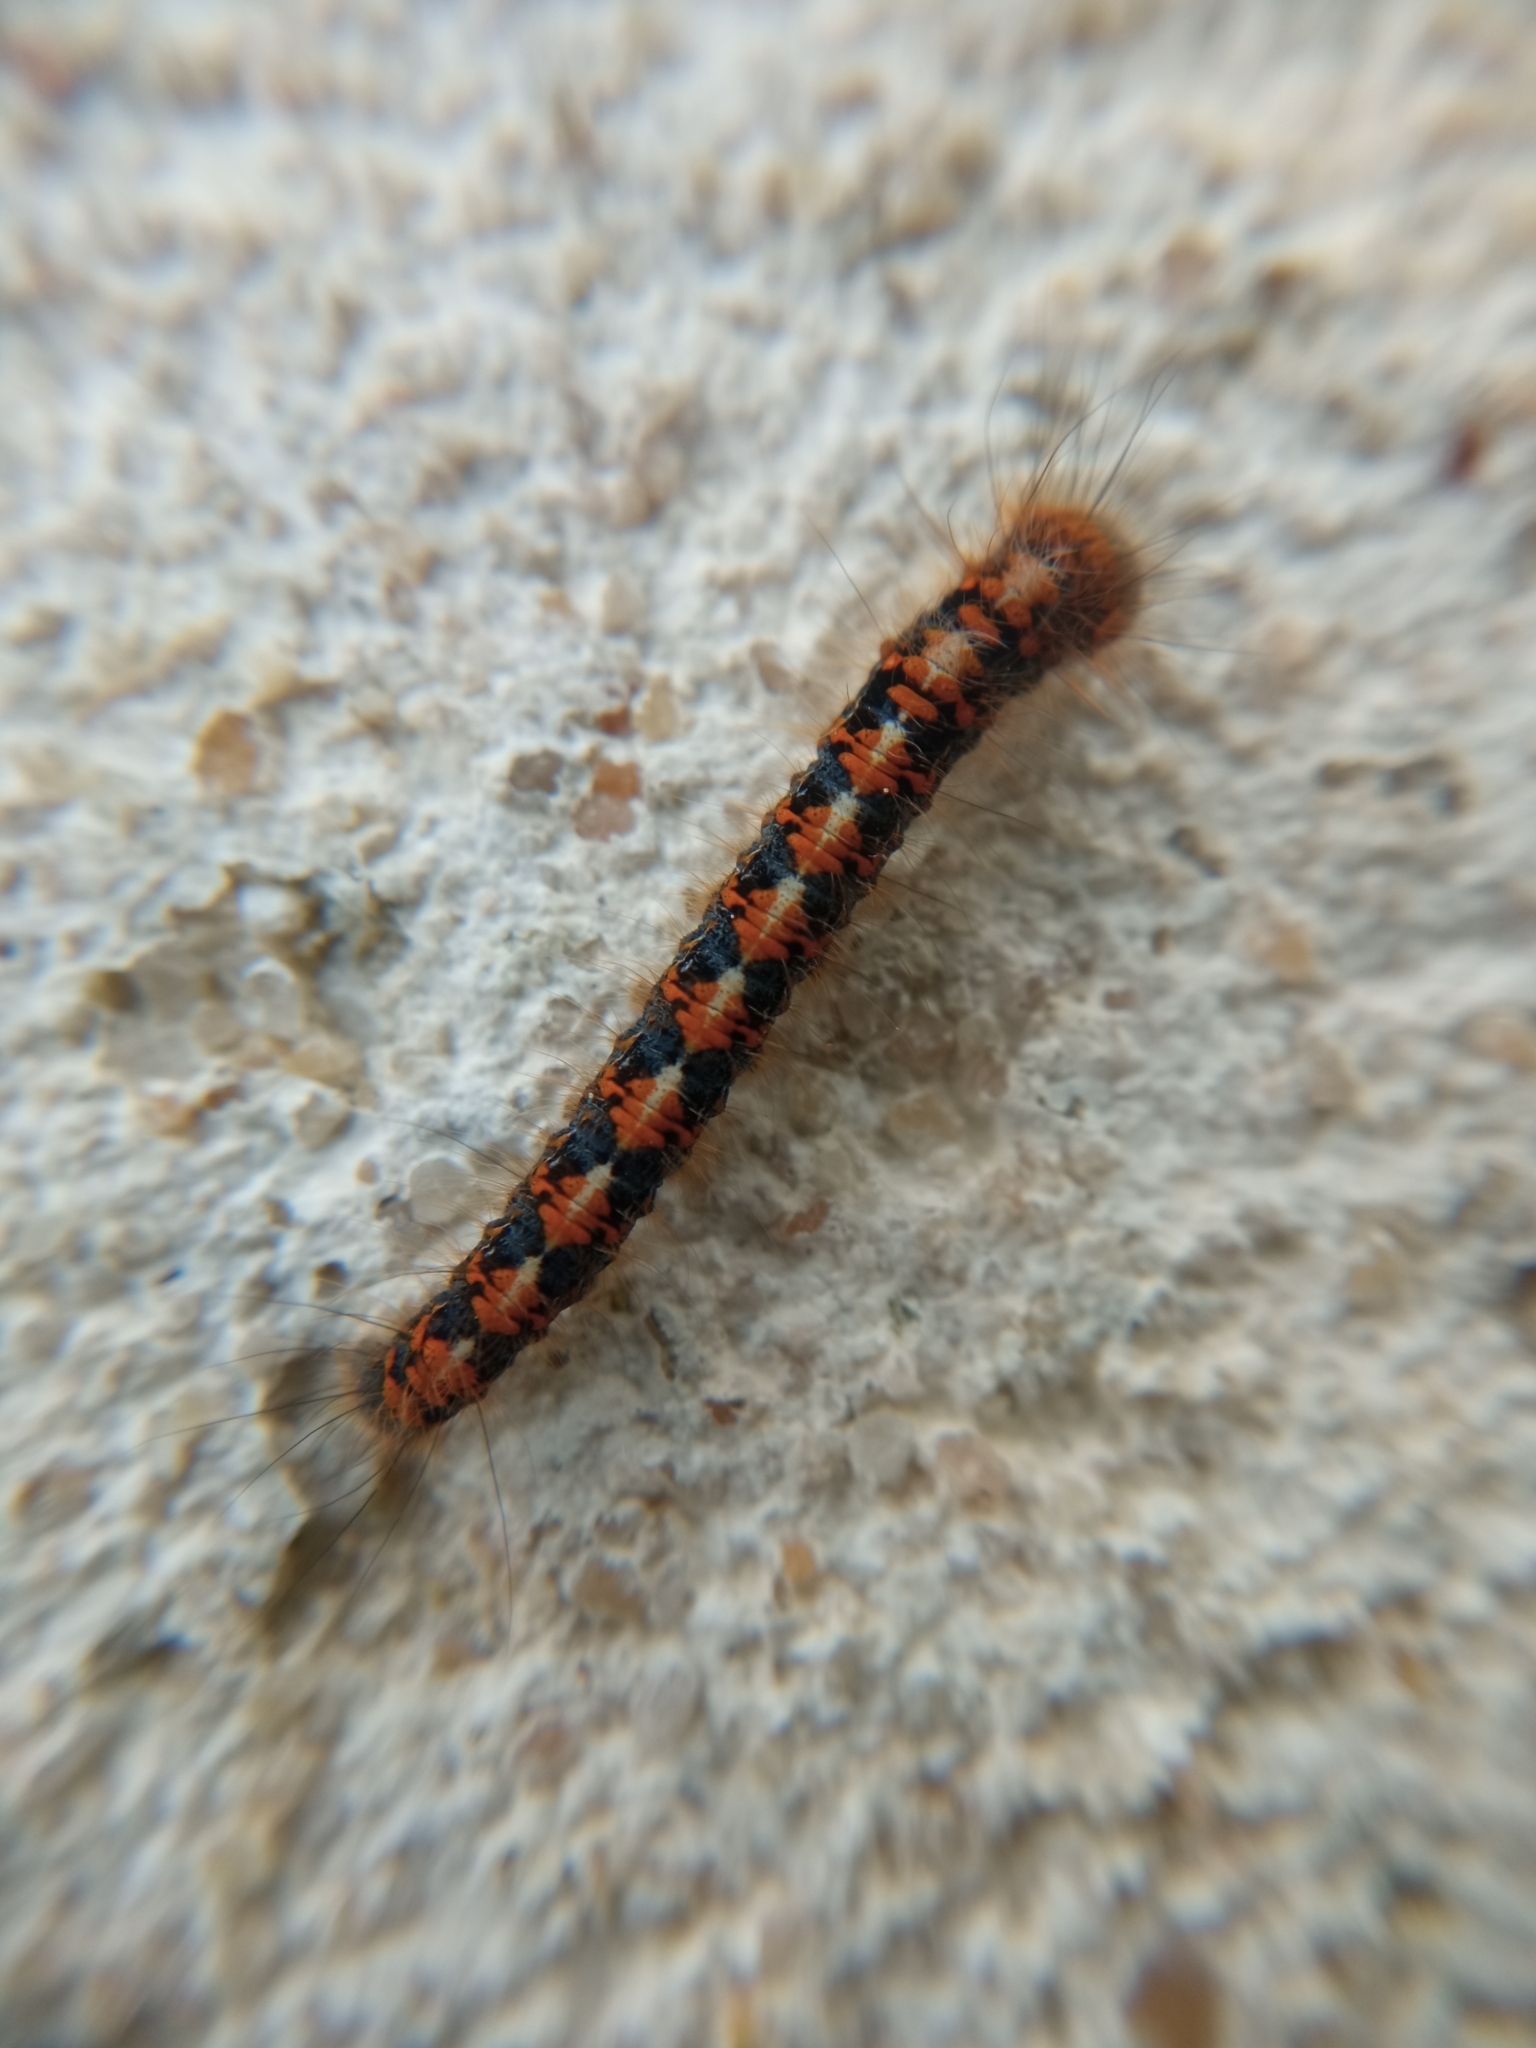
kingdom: Animalia
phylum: Arthropoda
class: Insecta
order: Lepidoptera
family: Lasiocampidae
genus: Lasiocampa
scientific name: Lasiocampa quercus
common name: Oak eggar
